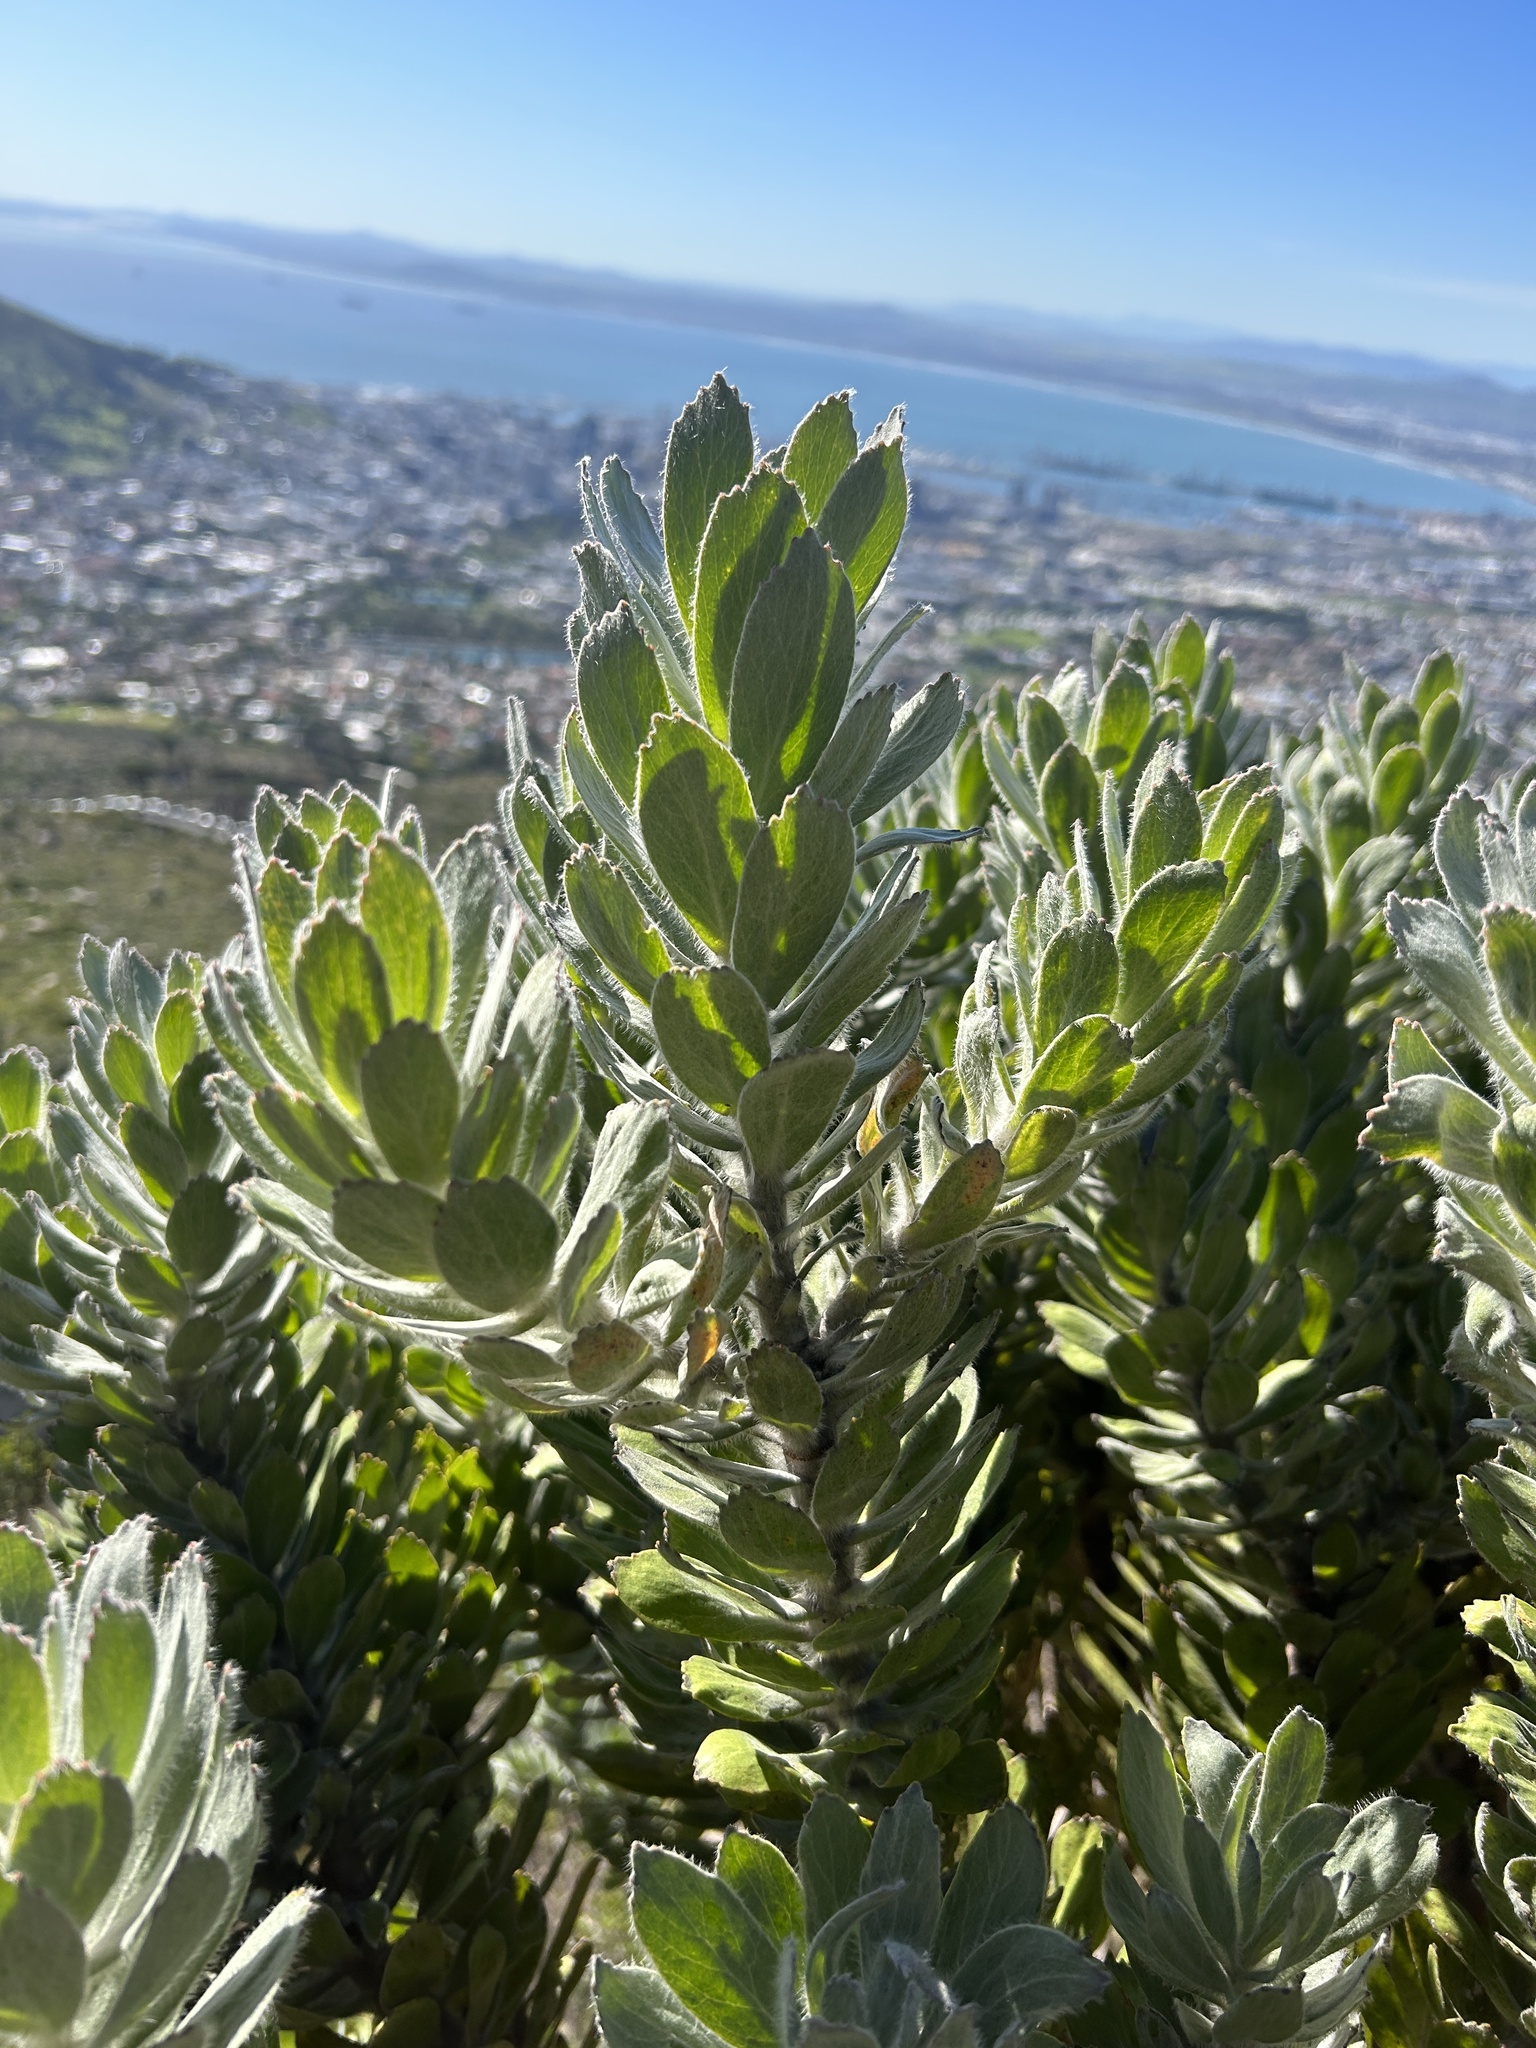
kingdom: Plantae
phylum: Tracheophyta
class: Magnoliopsida
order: Proteales
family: Proteaceae
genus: Leucospermum
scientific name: Leucospermum conocarpodendron
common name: Tree pincushion
